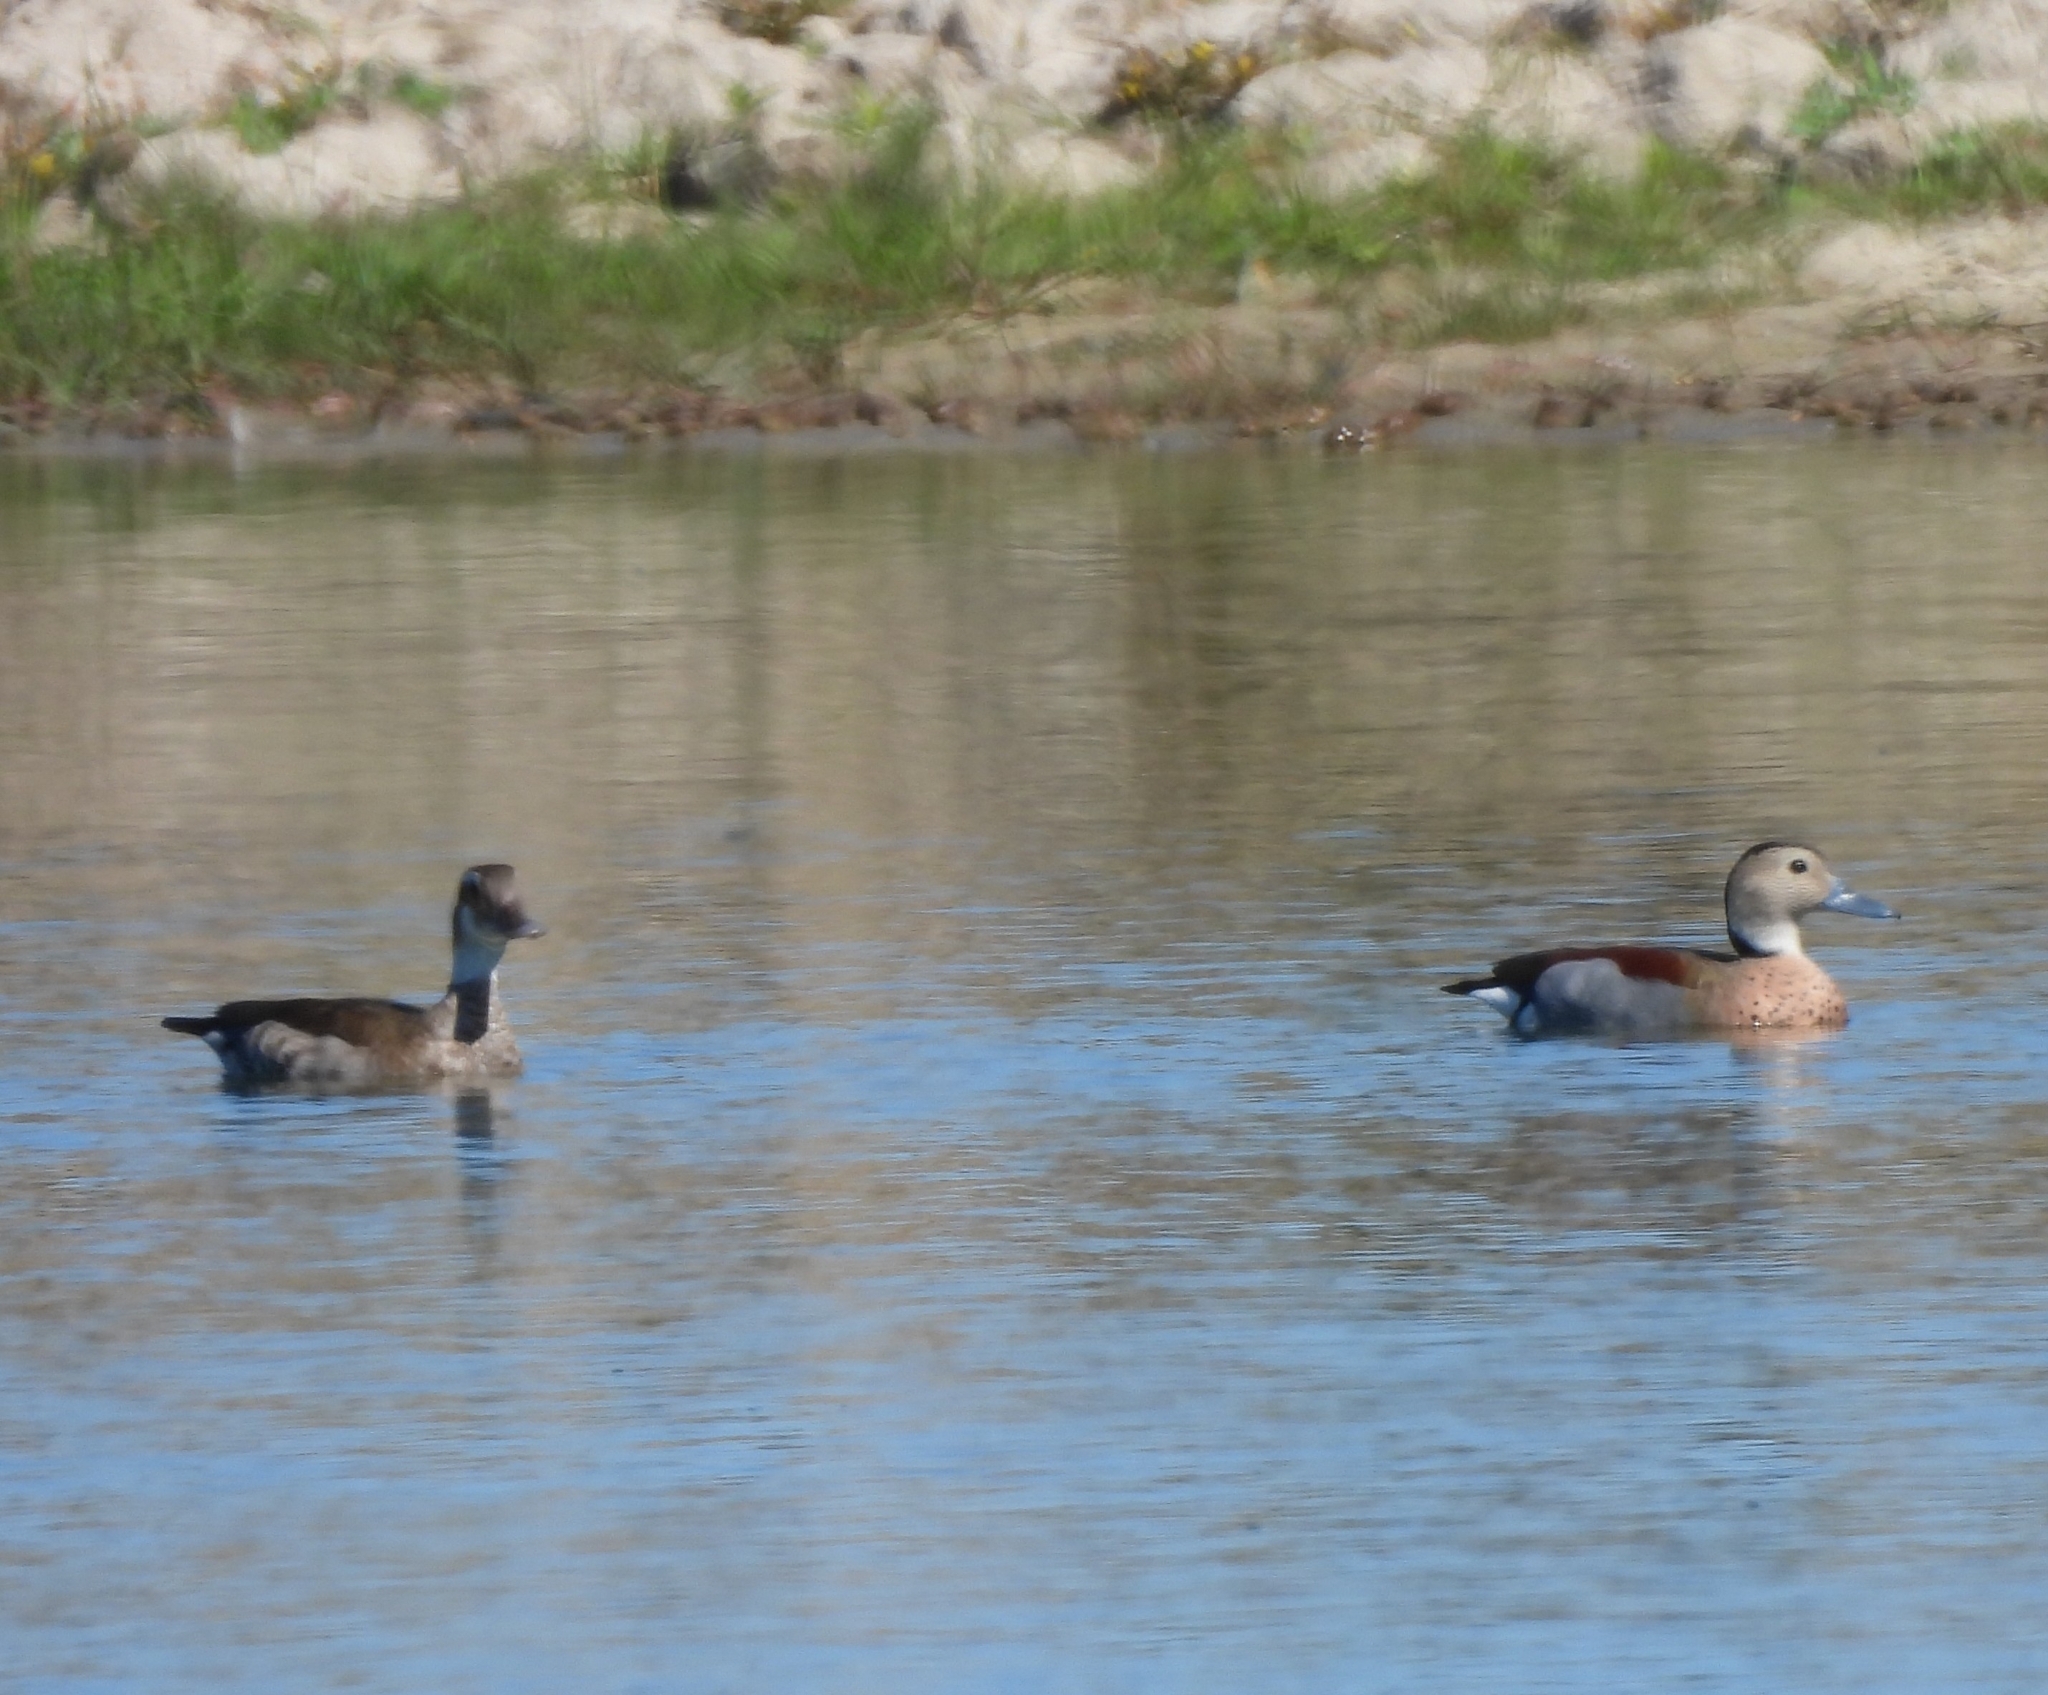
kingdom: Animalia
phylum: Chordata
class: Aves
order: Anseriformes
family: Anatidae
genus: Callonetta
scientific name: Callonetta leucophrys
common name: Ringed teal
